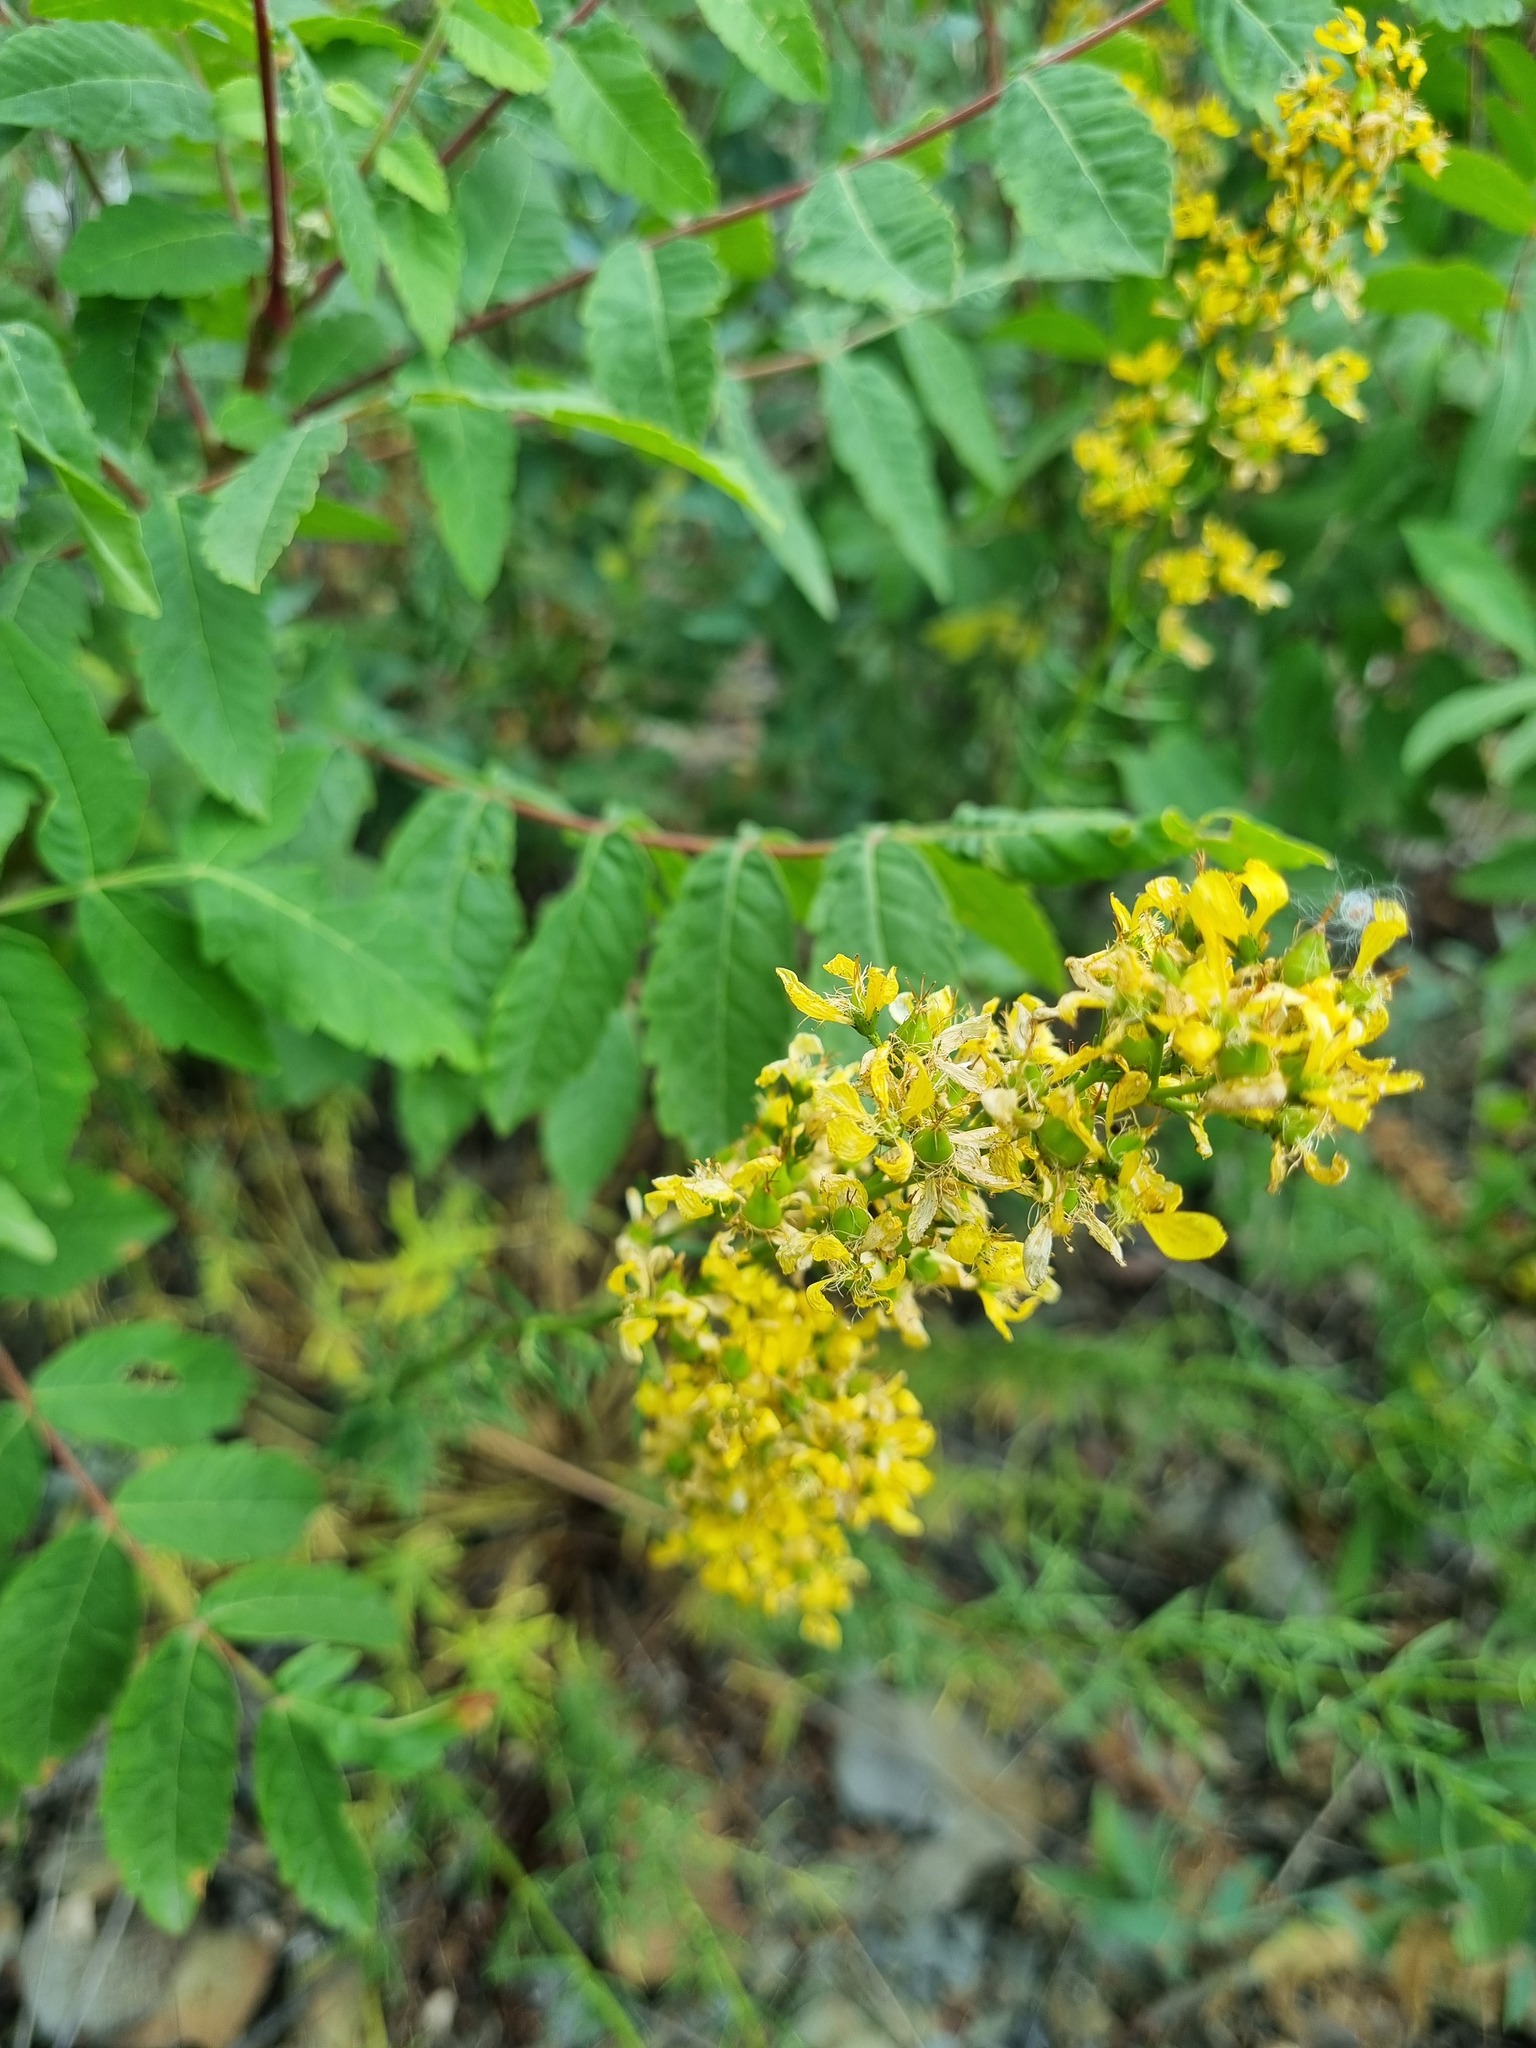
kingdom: Plantae
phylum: Tracheophyta
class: Magnoliopsida
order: Malpighiales
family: Hypericaceae
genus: Hypericum
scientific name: Hypericum lydium
